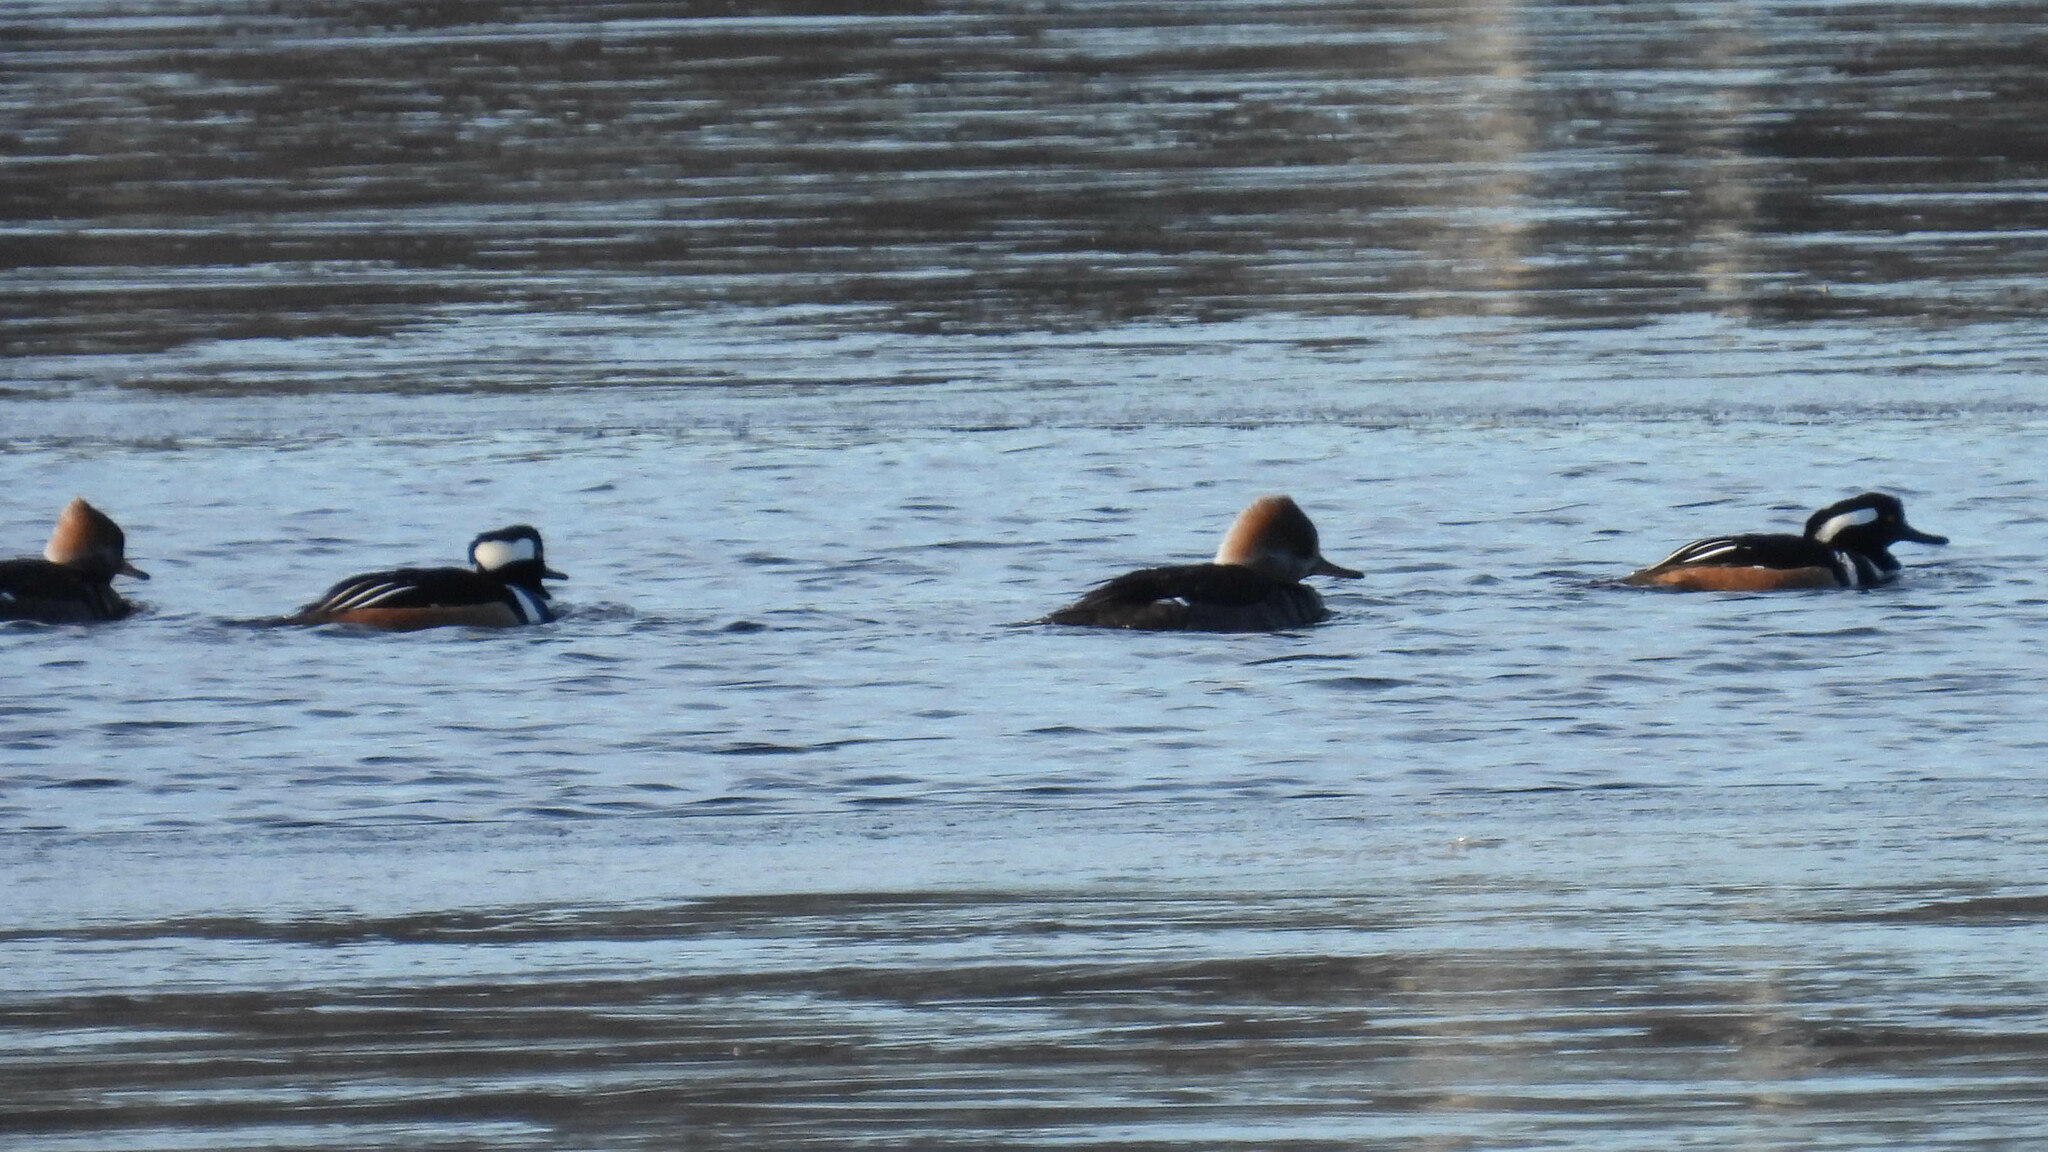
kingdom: Animalia
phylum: Chordata
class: Aves
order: Anseriformes
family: Anatidae
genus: Lophodytes
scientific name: Lophodytes cucullatus
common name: Hooded merganser
